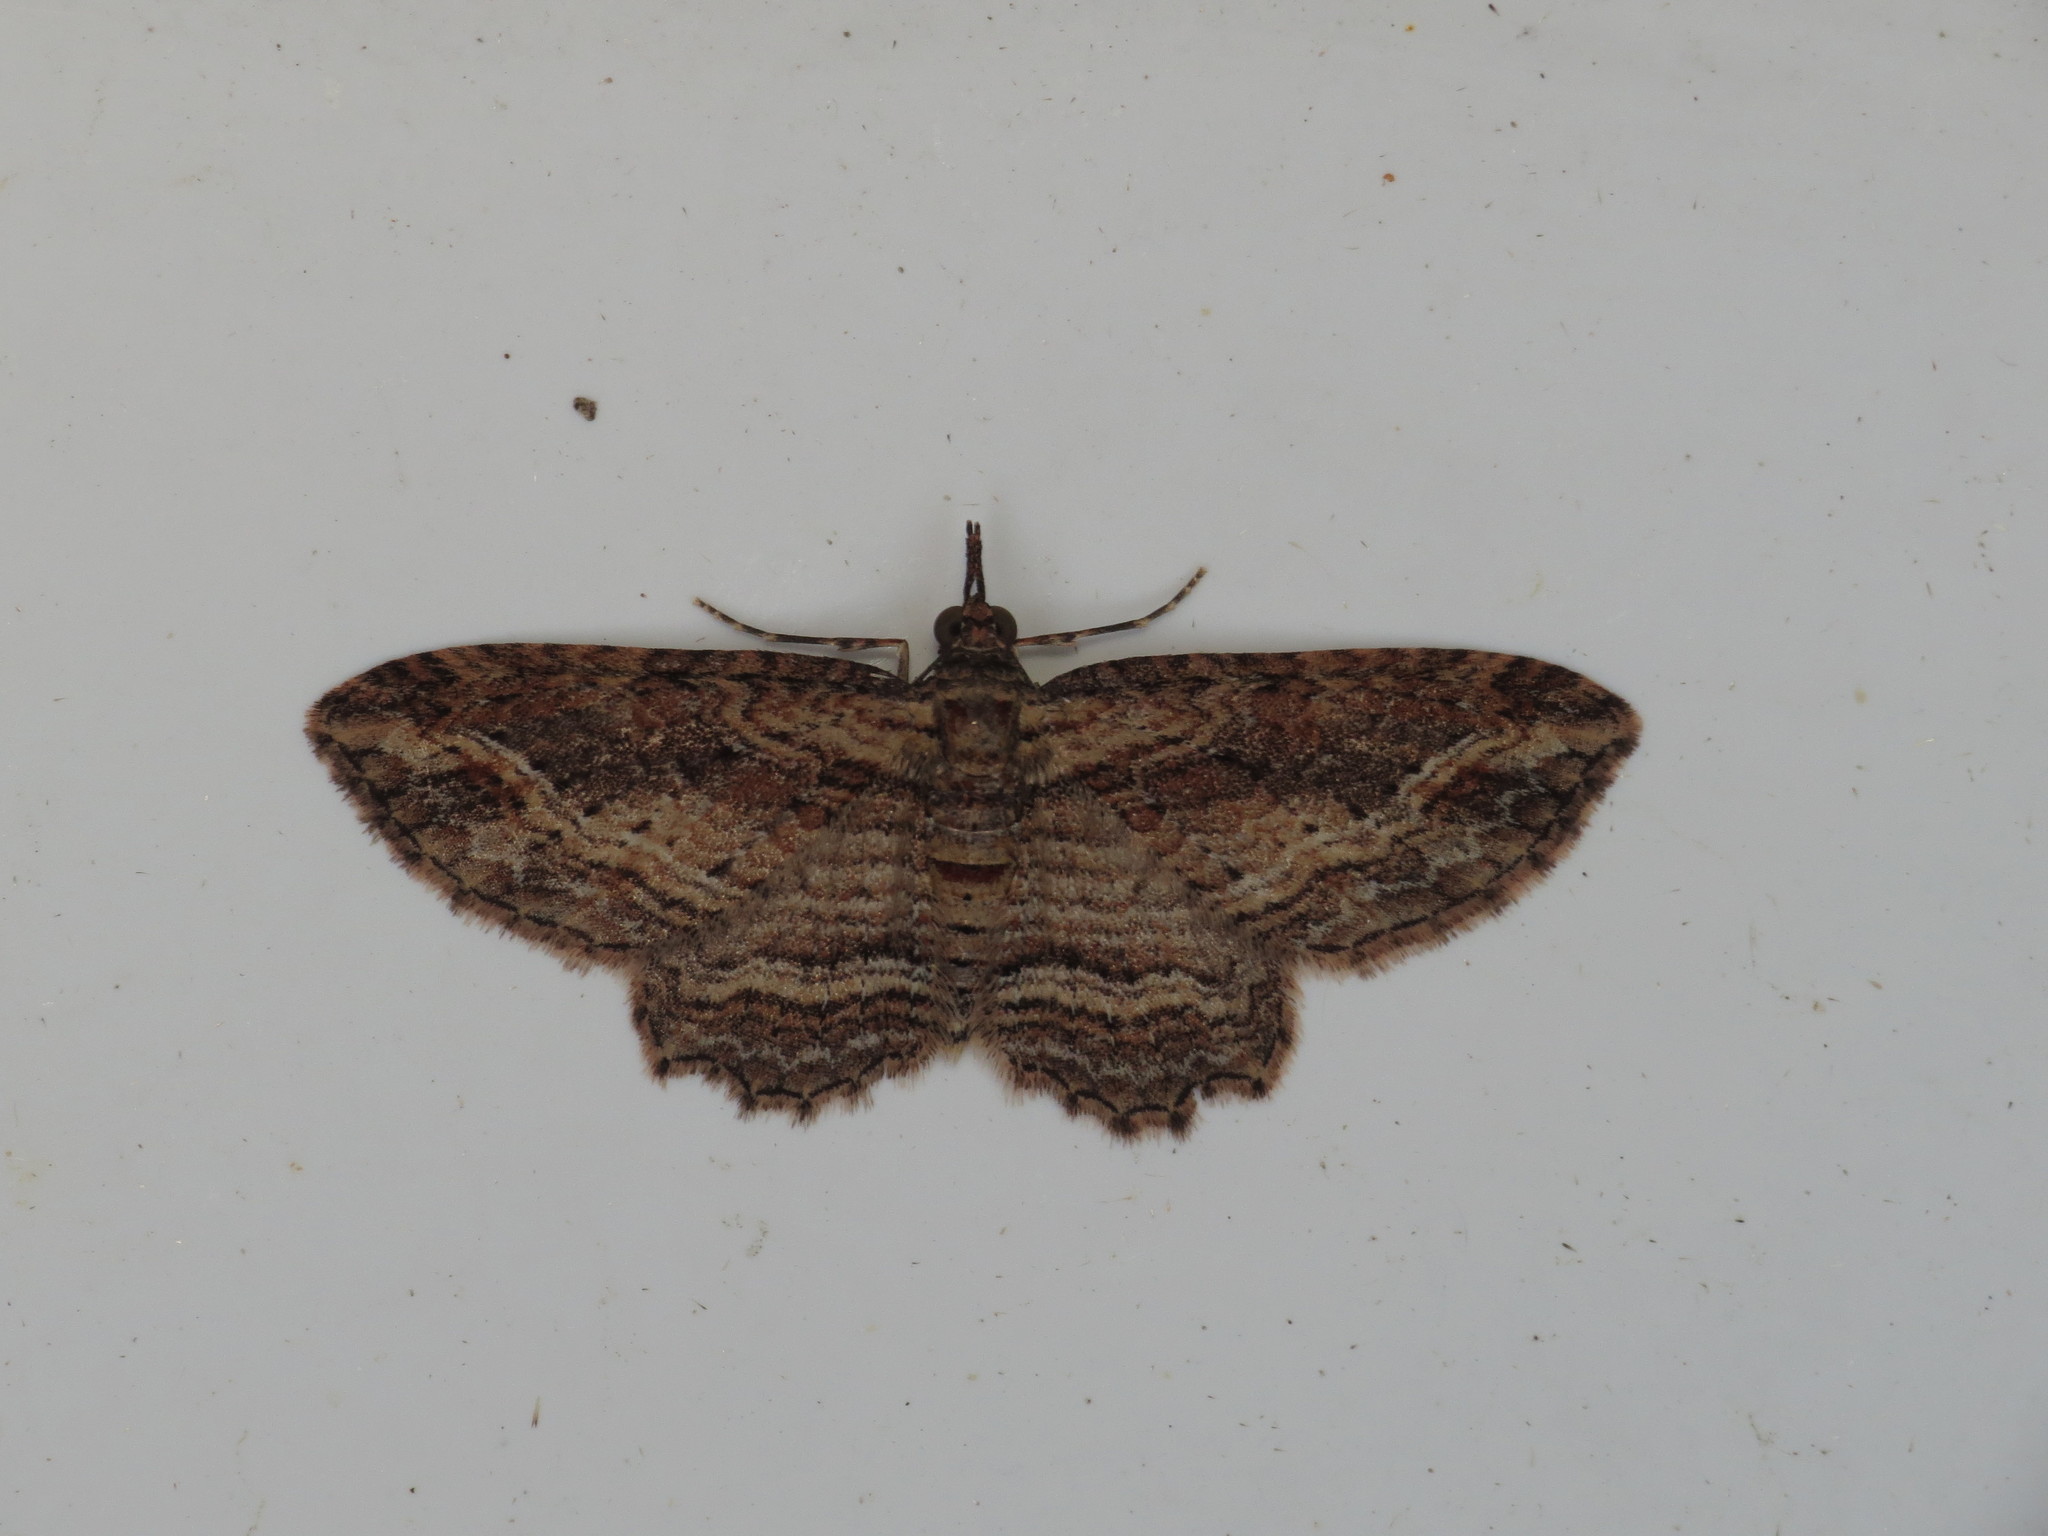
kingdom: Animalia
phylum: Arthropoda
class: Insecta
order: Lepidoptera
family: Geometridae
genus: Chloroclystis
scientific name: Chloroclystis filata
